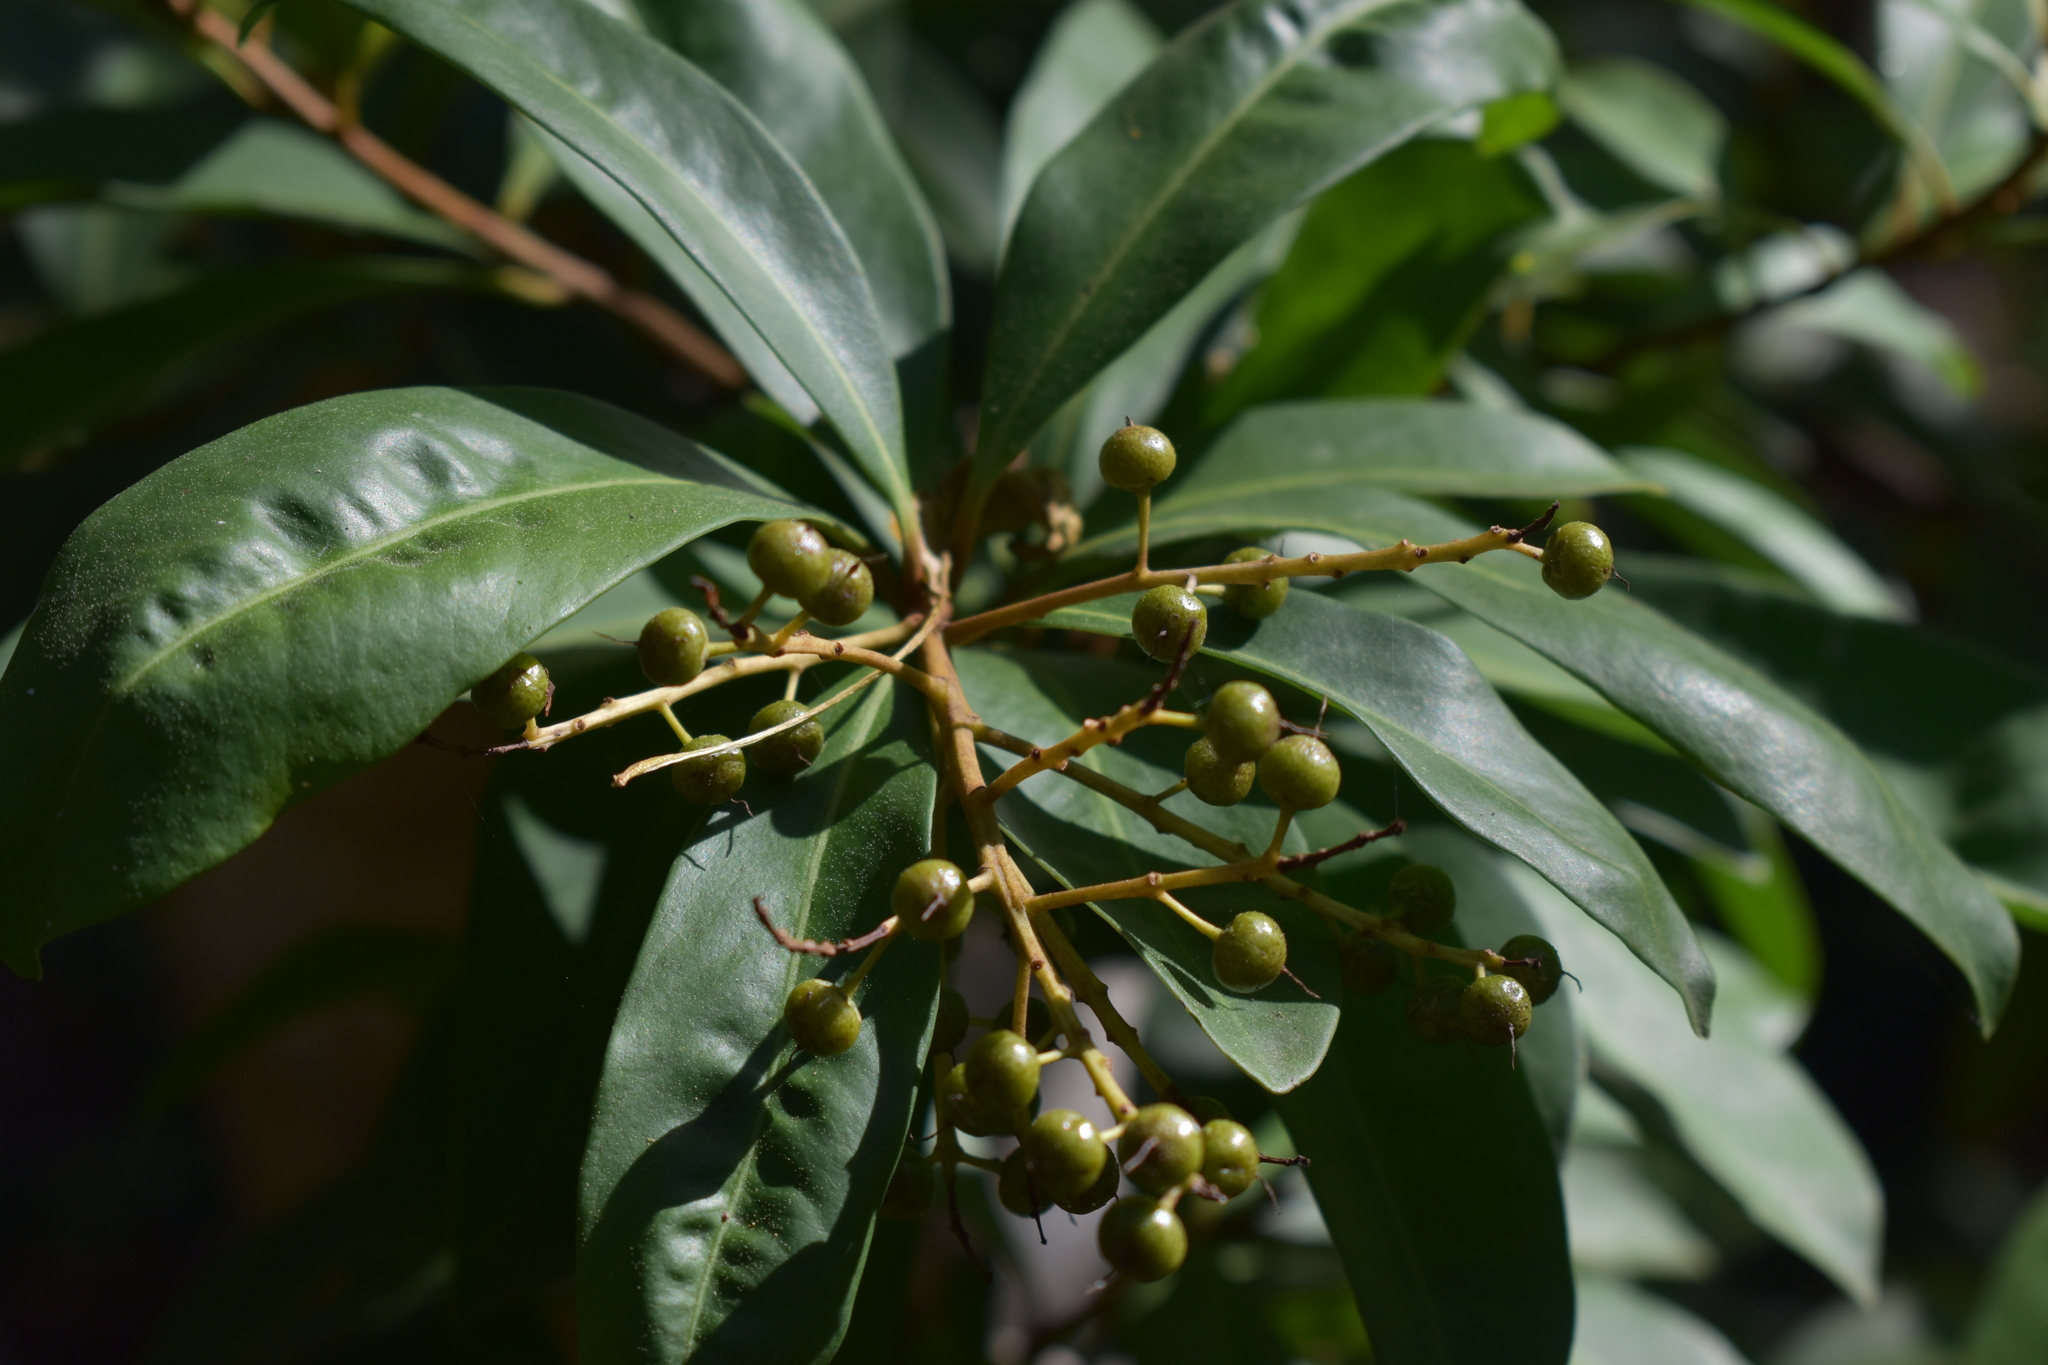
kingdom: Plantae
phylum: Tracheophyta
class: Magnoliopsida
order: Ericales
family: Primulaceae
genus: Ardisia
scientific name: Ardisia escallonioides
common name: Island marlberry
